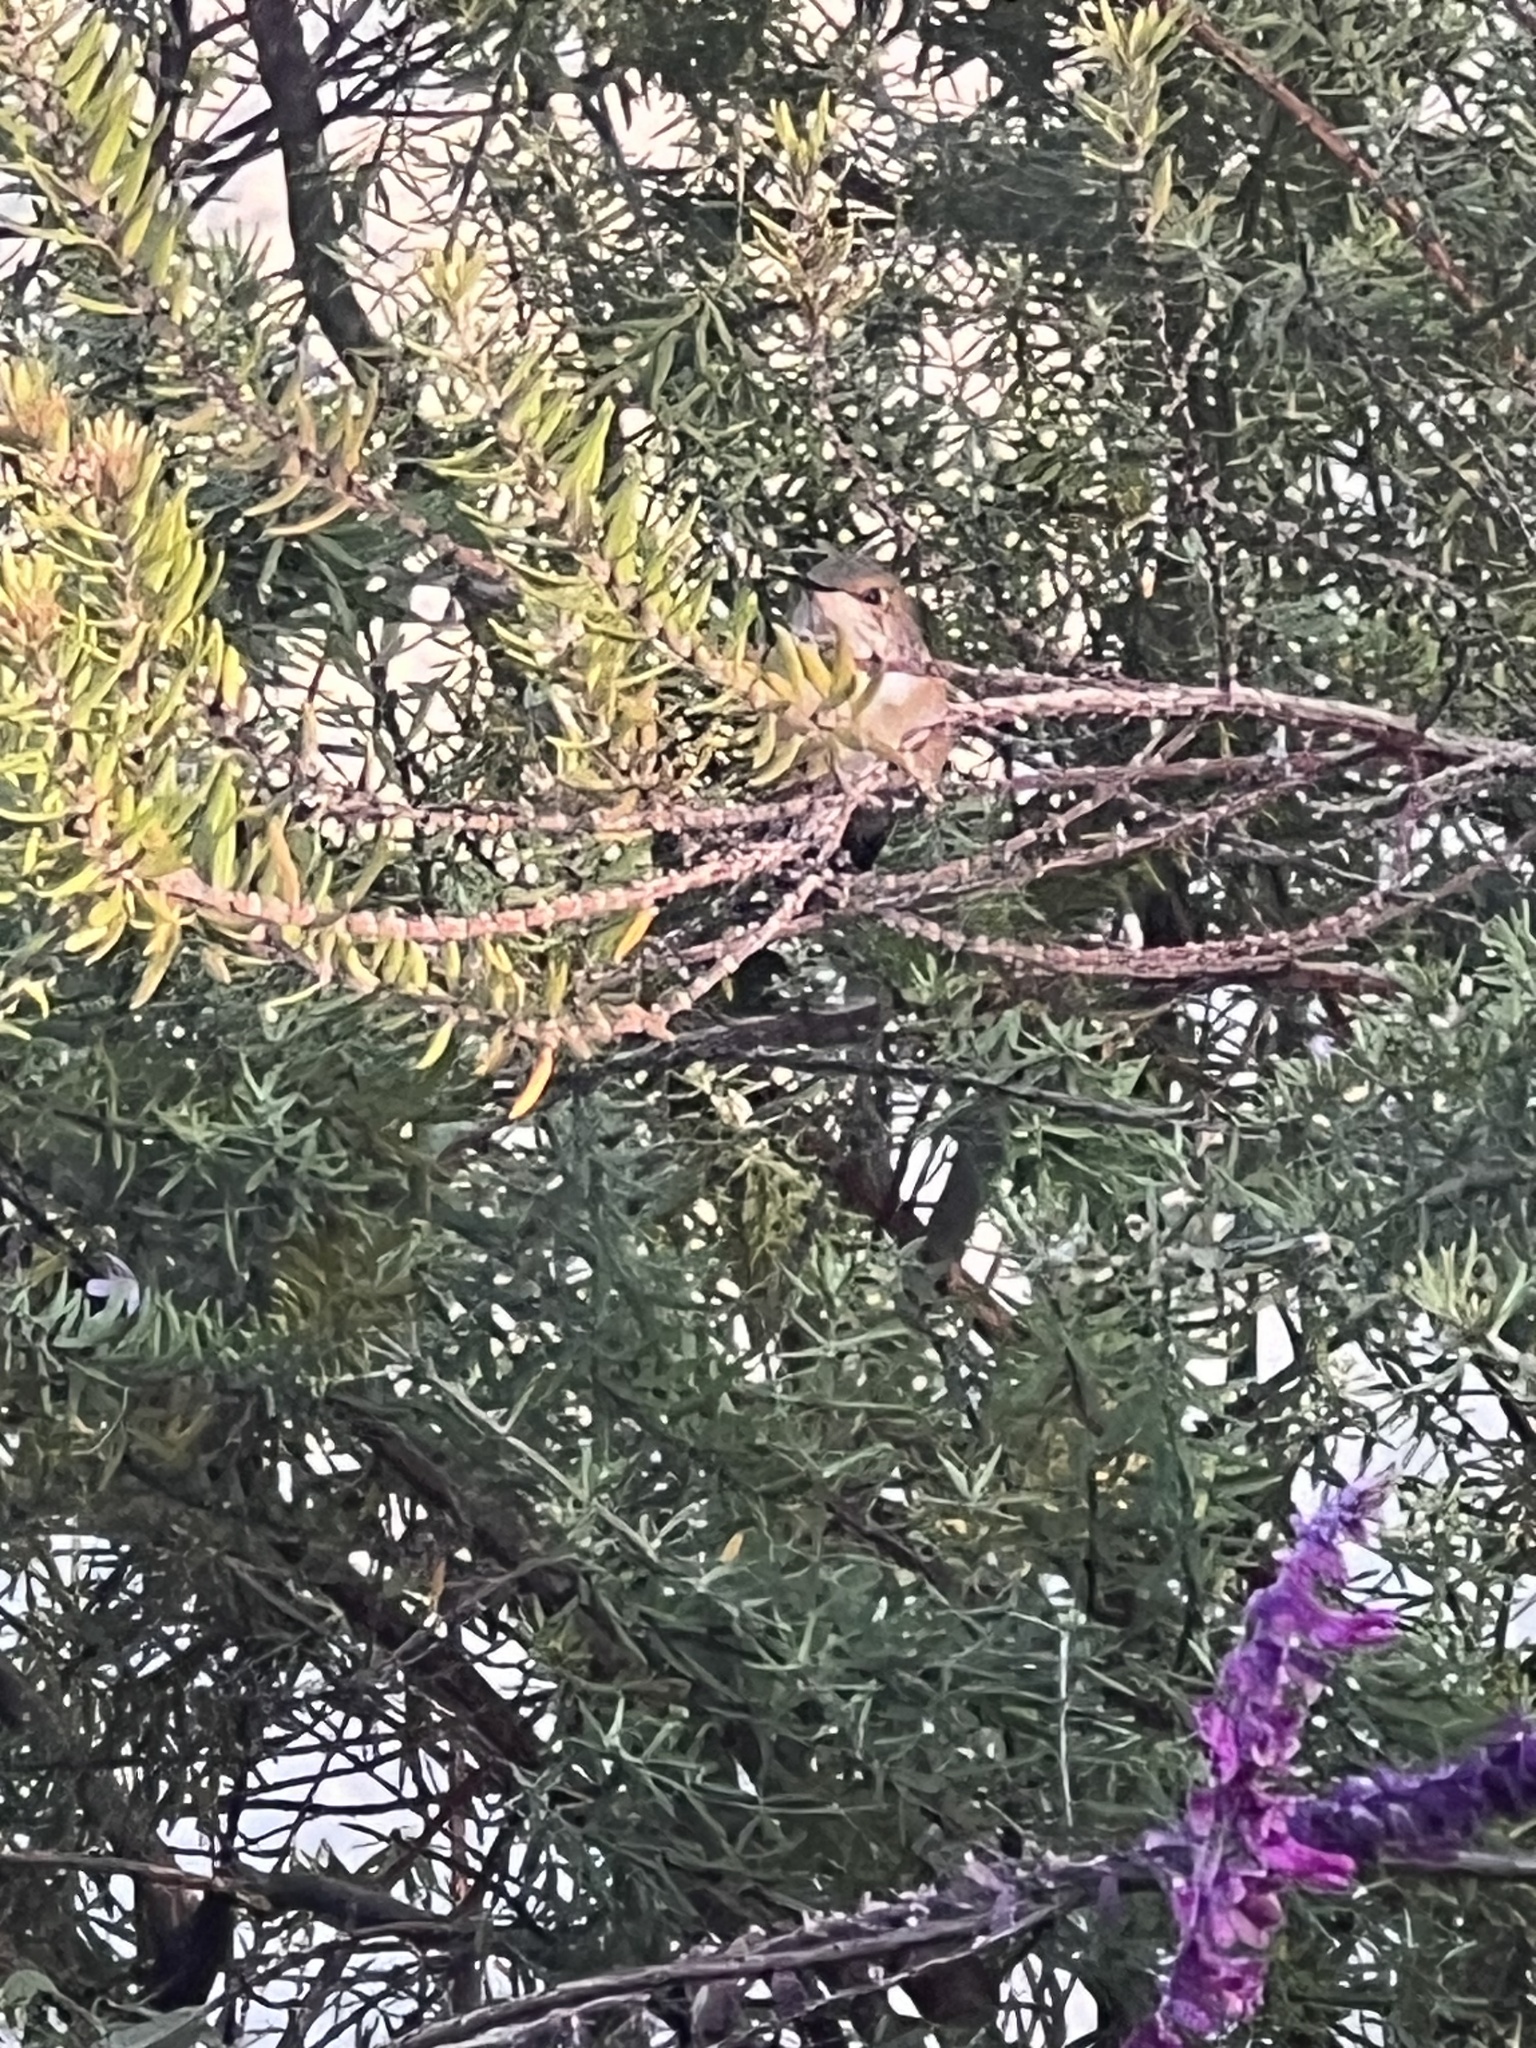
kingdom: Animalia
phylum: Chordata
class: Aves
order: Apodiformes
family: Trochilidae
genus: Selasphorus
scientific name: Selasphorus sasin
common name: Allen's hummingbird
